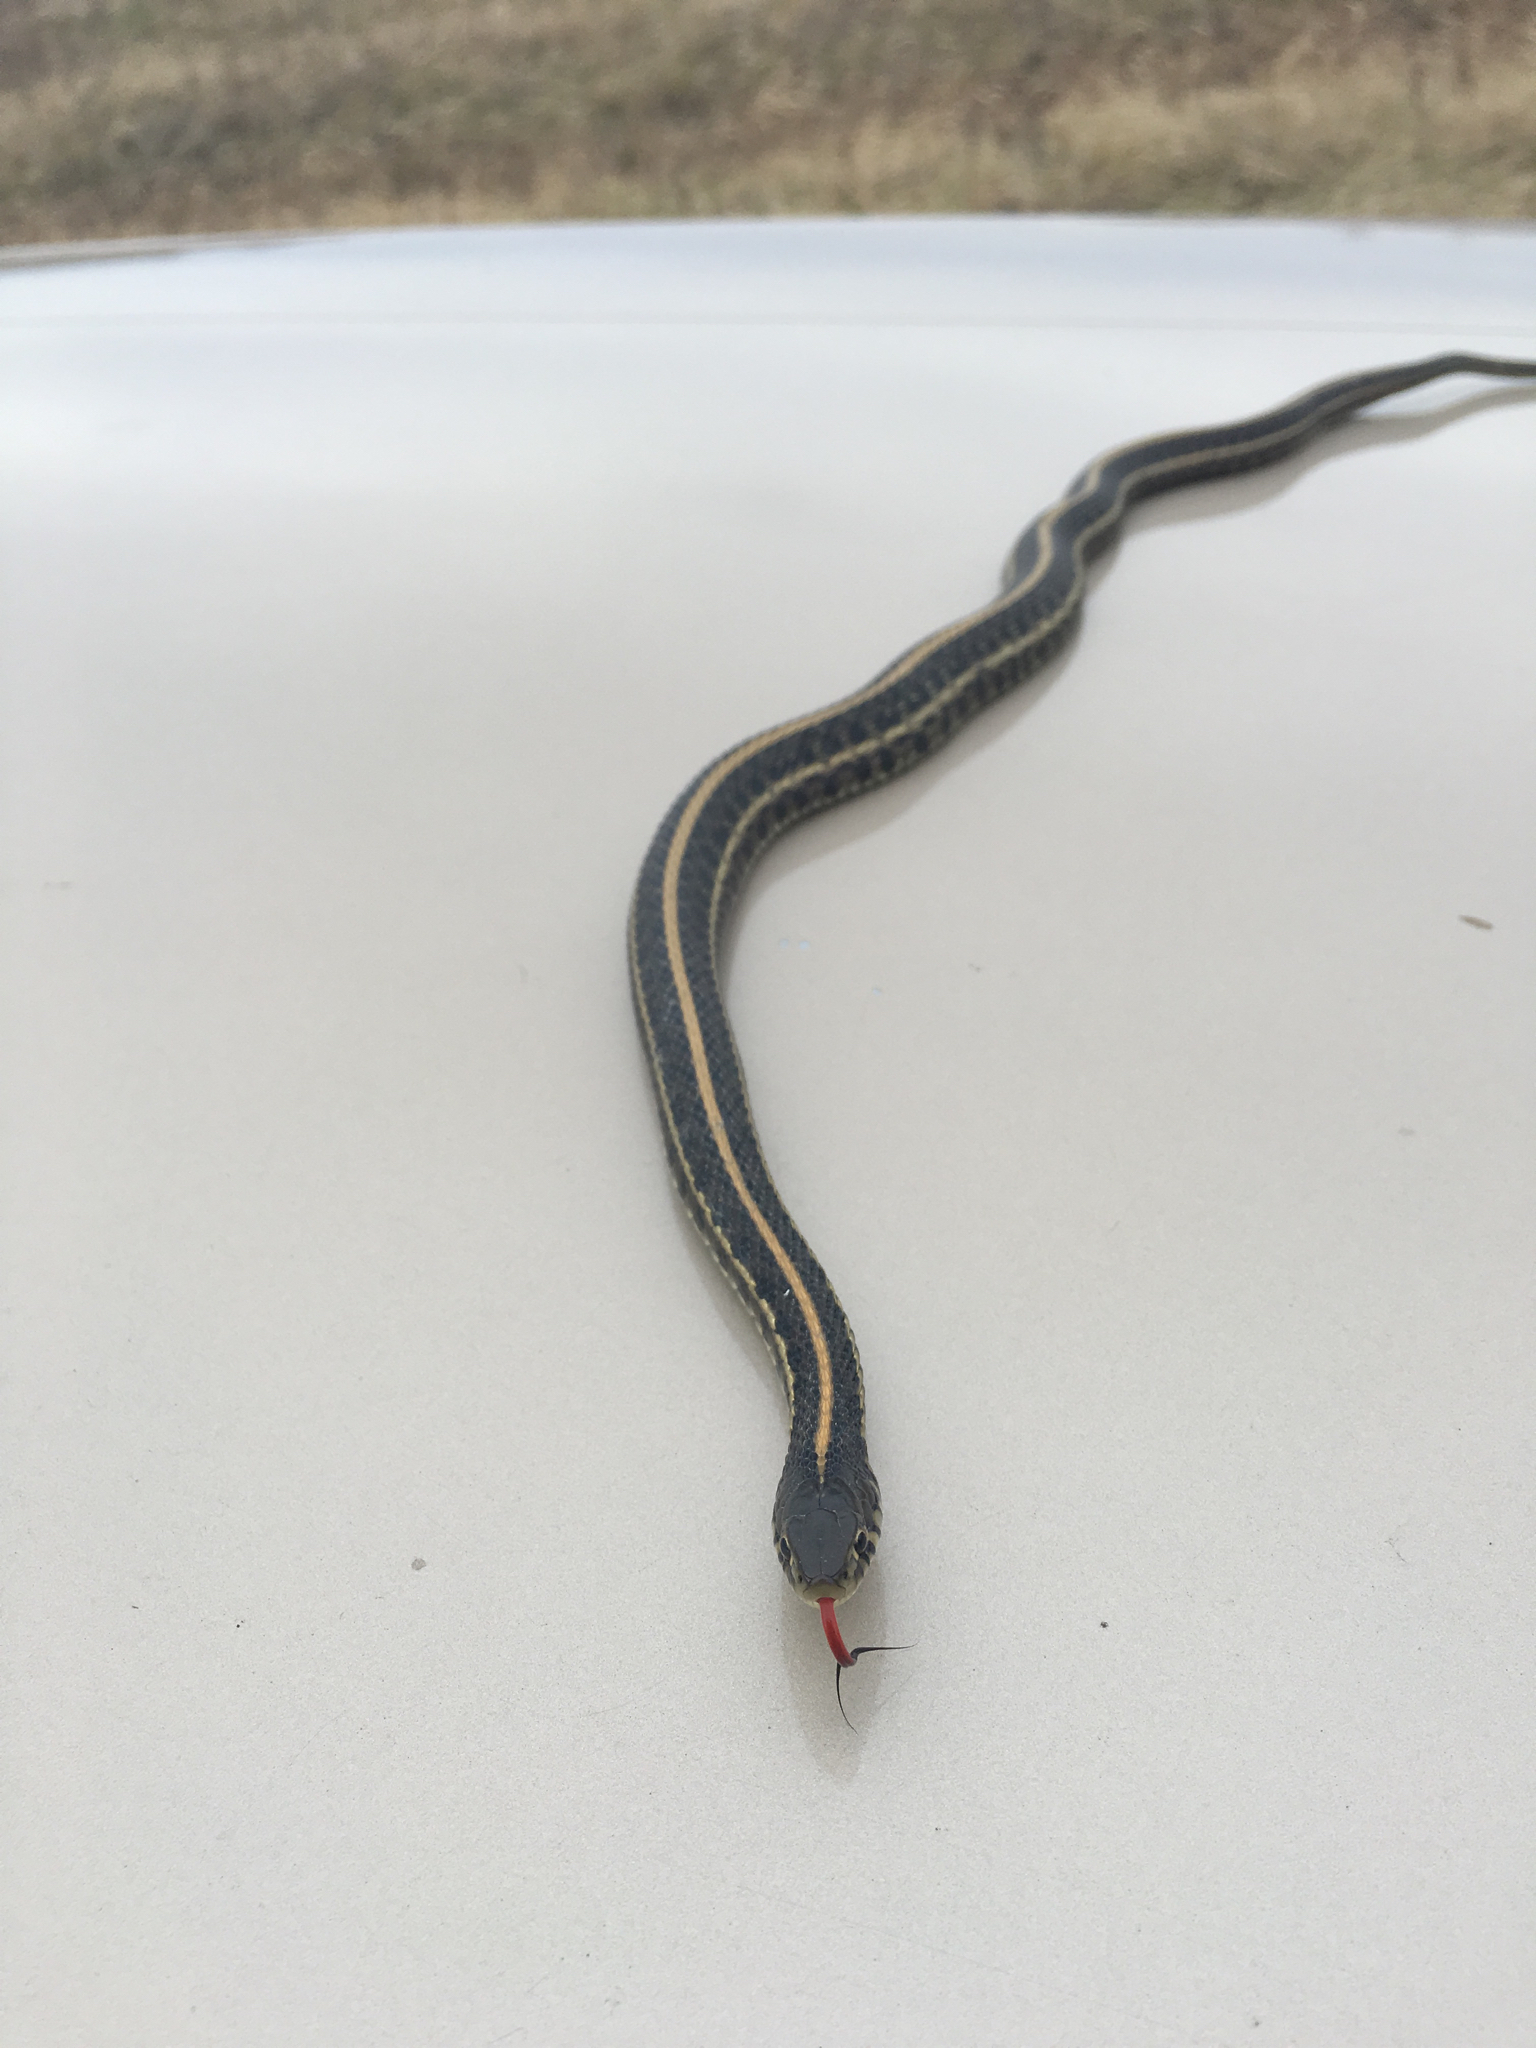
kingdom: Animalia
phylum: Chordata
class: Squamata
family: Colubridae
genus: Thamnophis
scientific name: Thamnophis radix
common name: Plains garter snake
